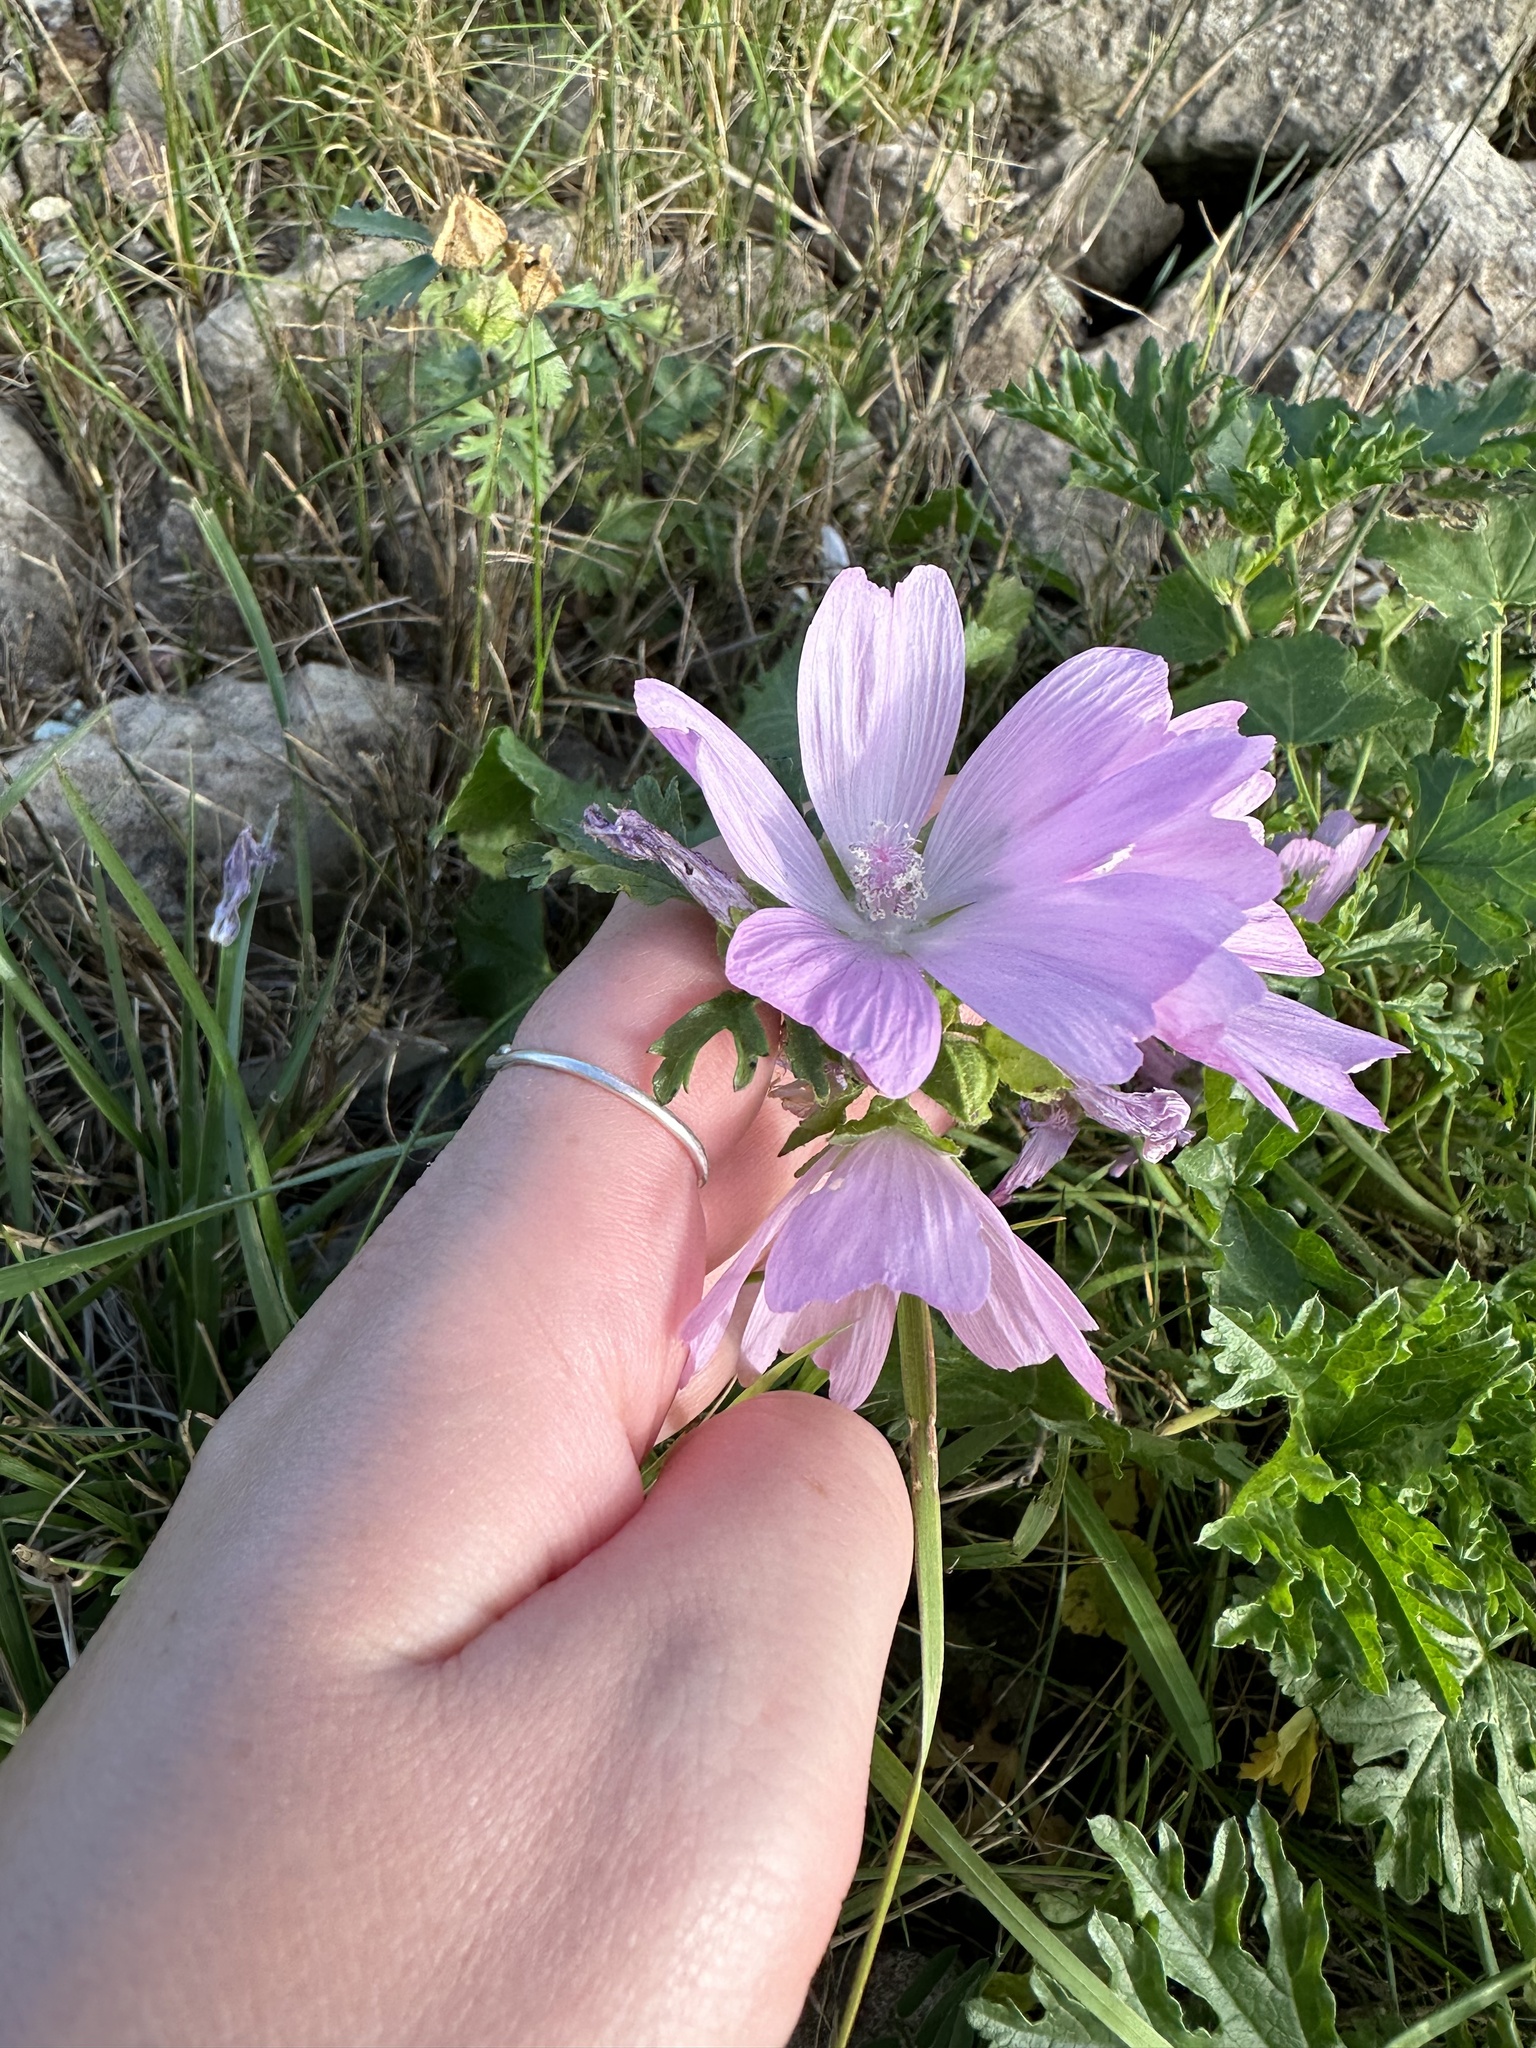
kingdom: Plantae
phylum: Tracheophyta
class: Magnoliopsida
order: Malvales
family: Malvaceae
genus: Malva
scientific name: Malva moschata
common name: Musk mallow
